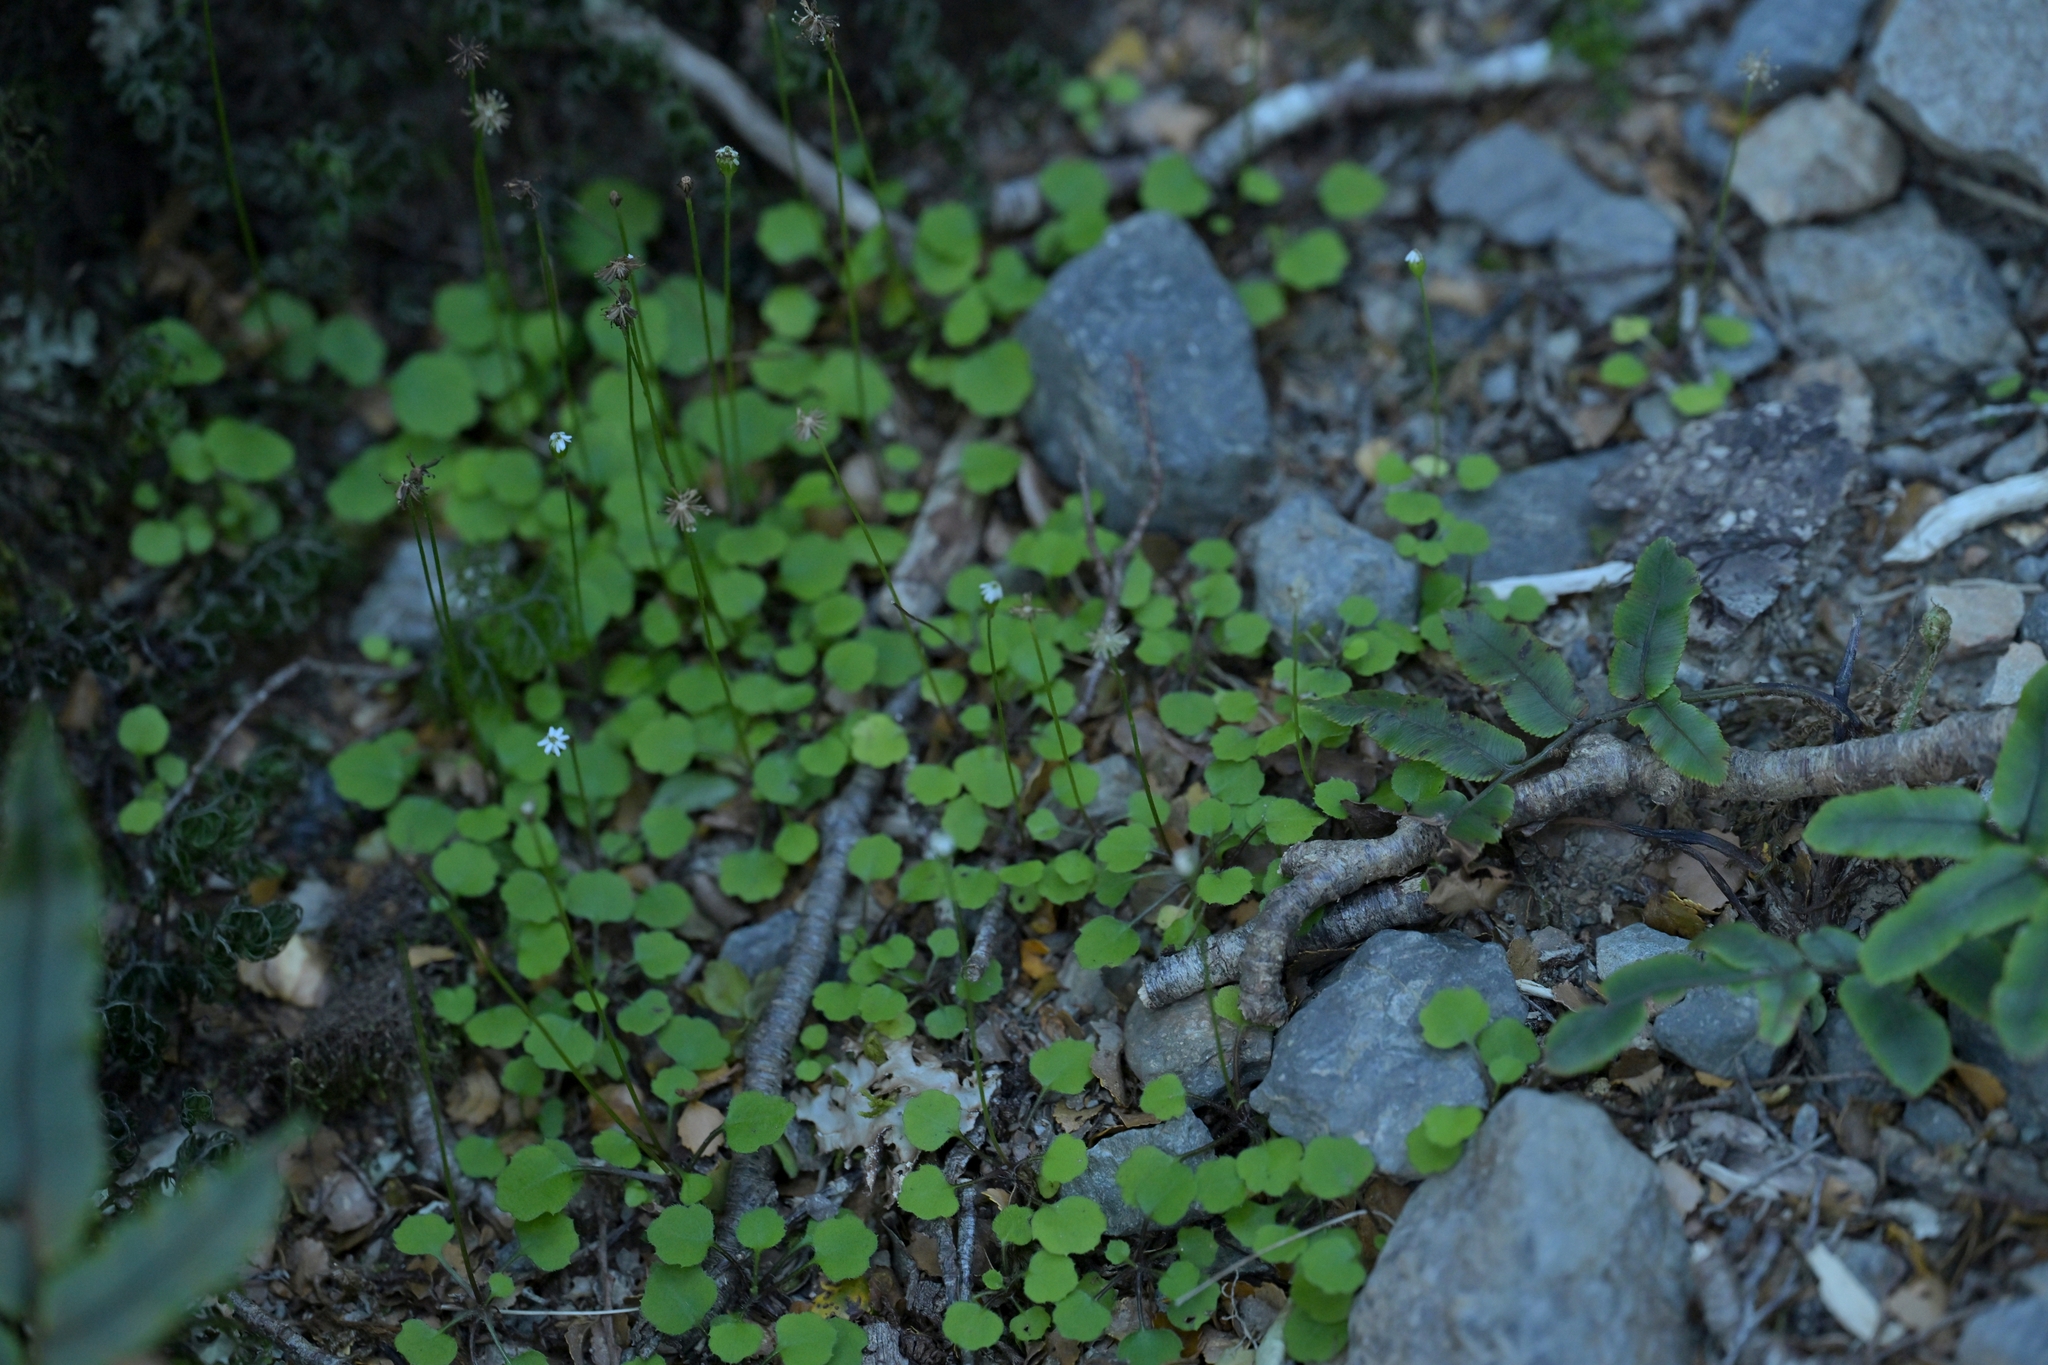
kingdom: Plantae
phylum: Tracheophyta
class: Magnoliopsida
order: Asterales
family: Asteraceae
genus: Lagenophora
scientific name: Lagenophora strangulata
